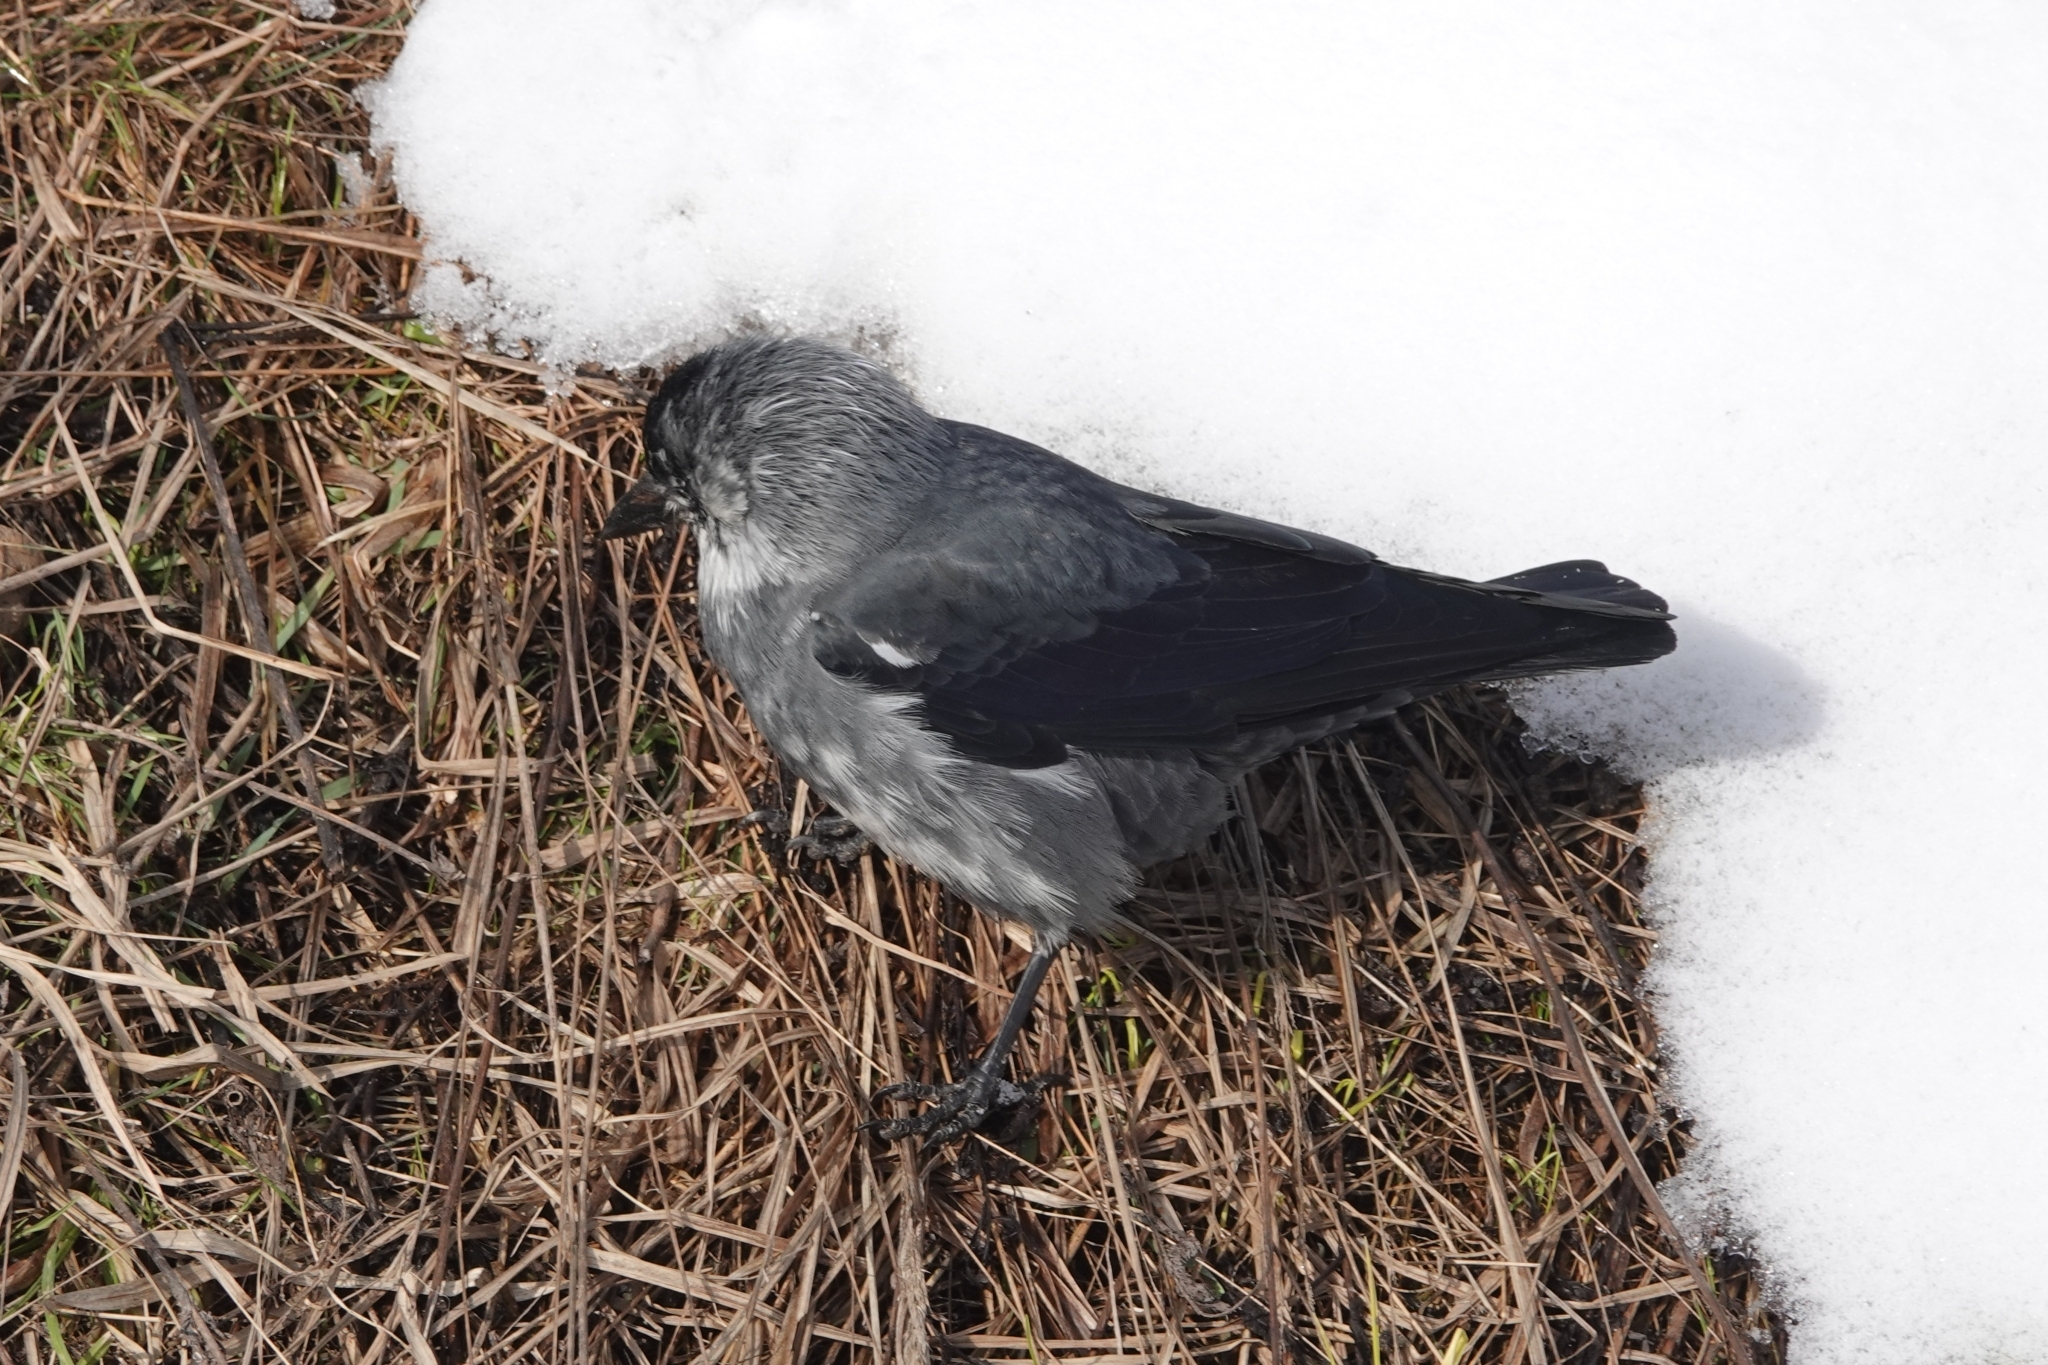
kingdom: Animalia
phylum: Chordata
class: Aves
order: Passeriformes
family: Corvidae
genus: Coloeus
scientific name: Coloeus monedula
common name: Western jackdaw
